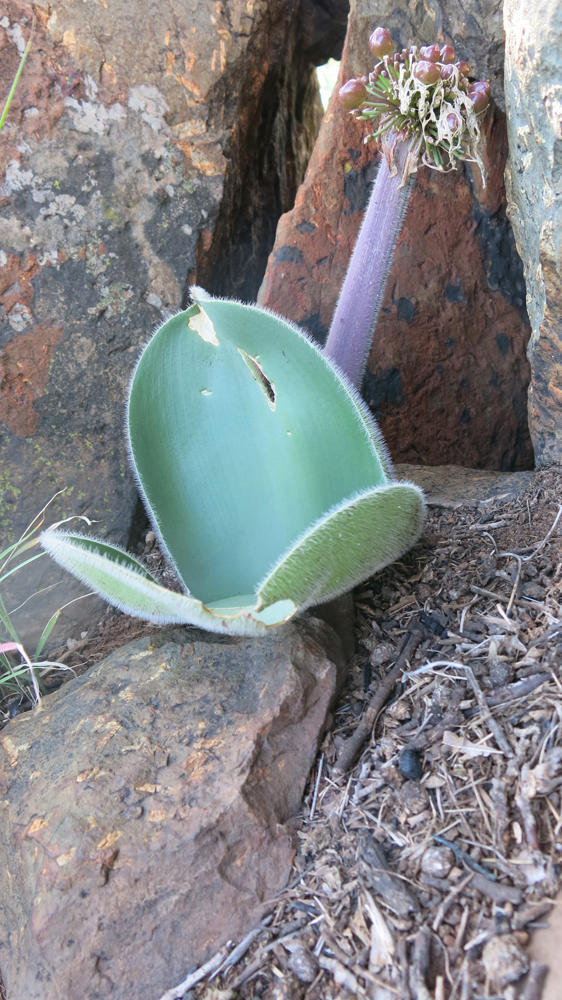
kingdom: Plantae
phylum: Tracheophyta
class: Liliopsida
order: Asparagales
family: Amaryllidaceae
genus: Haemanthus
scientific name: Haemanthus humilis
